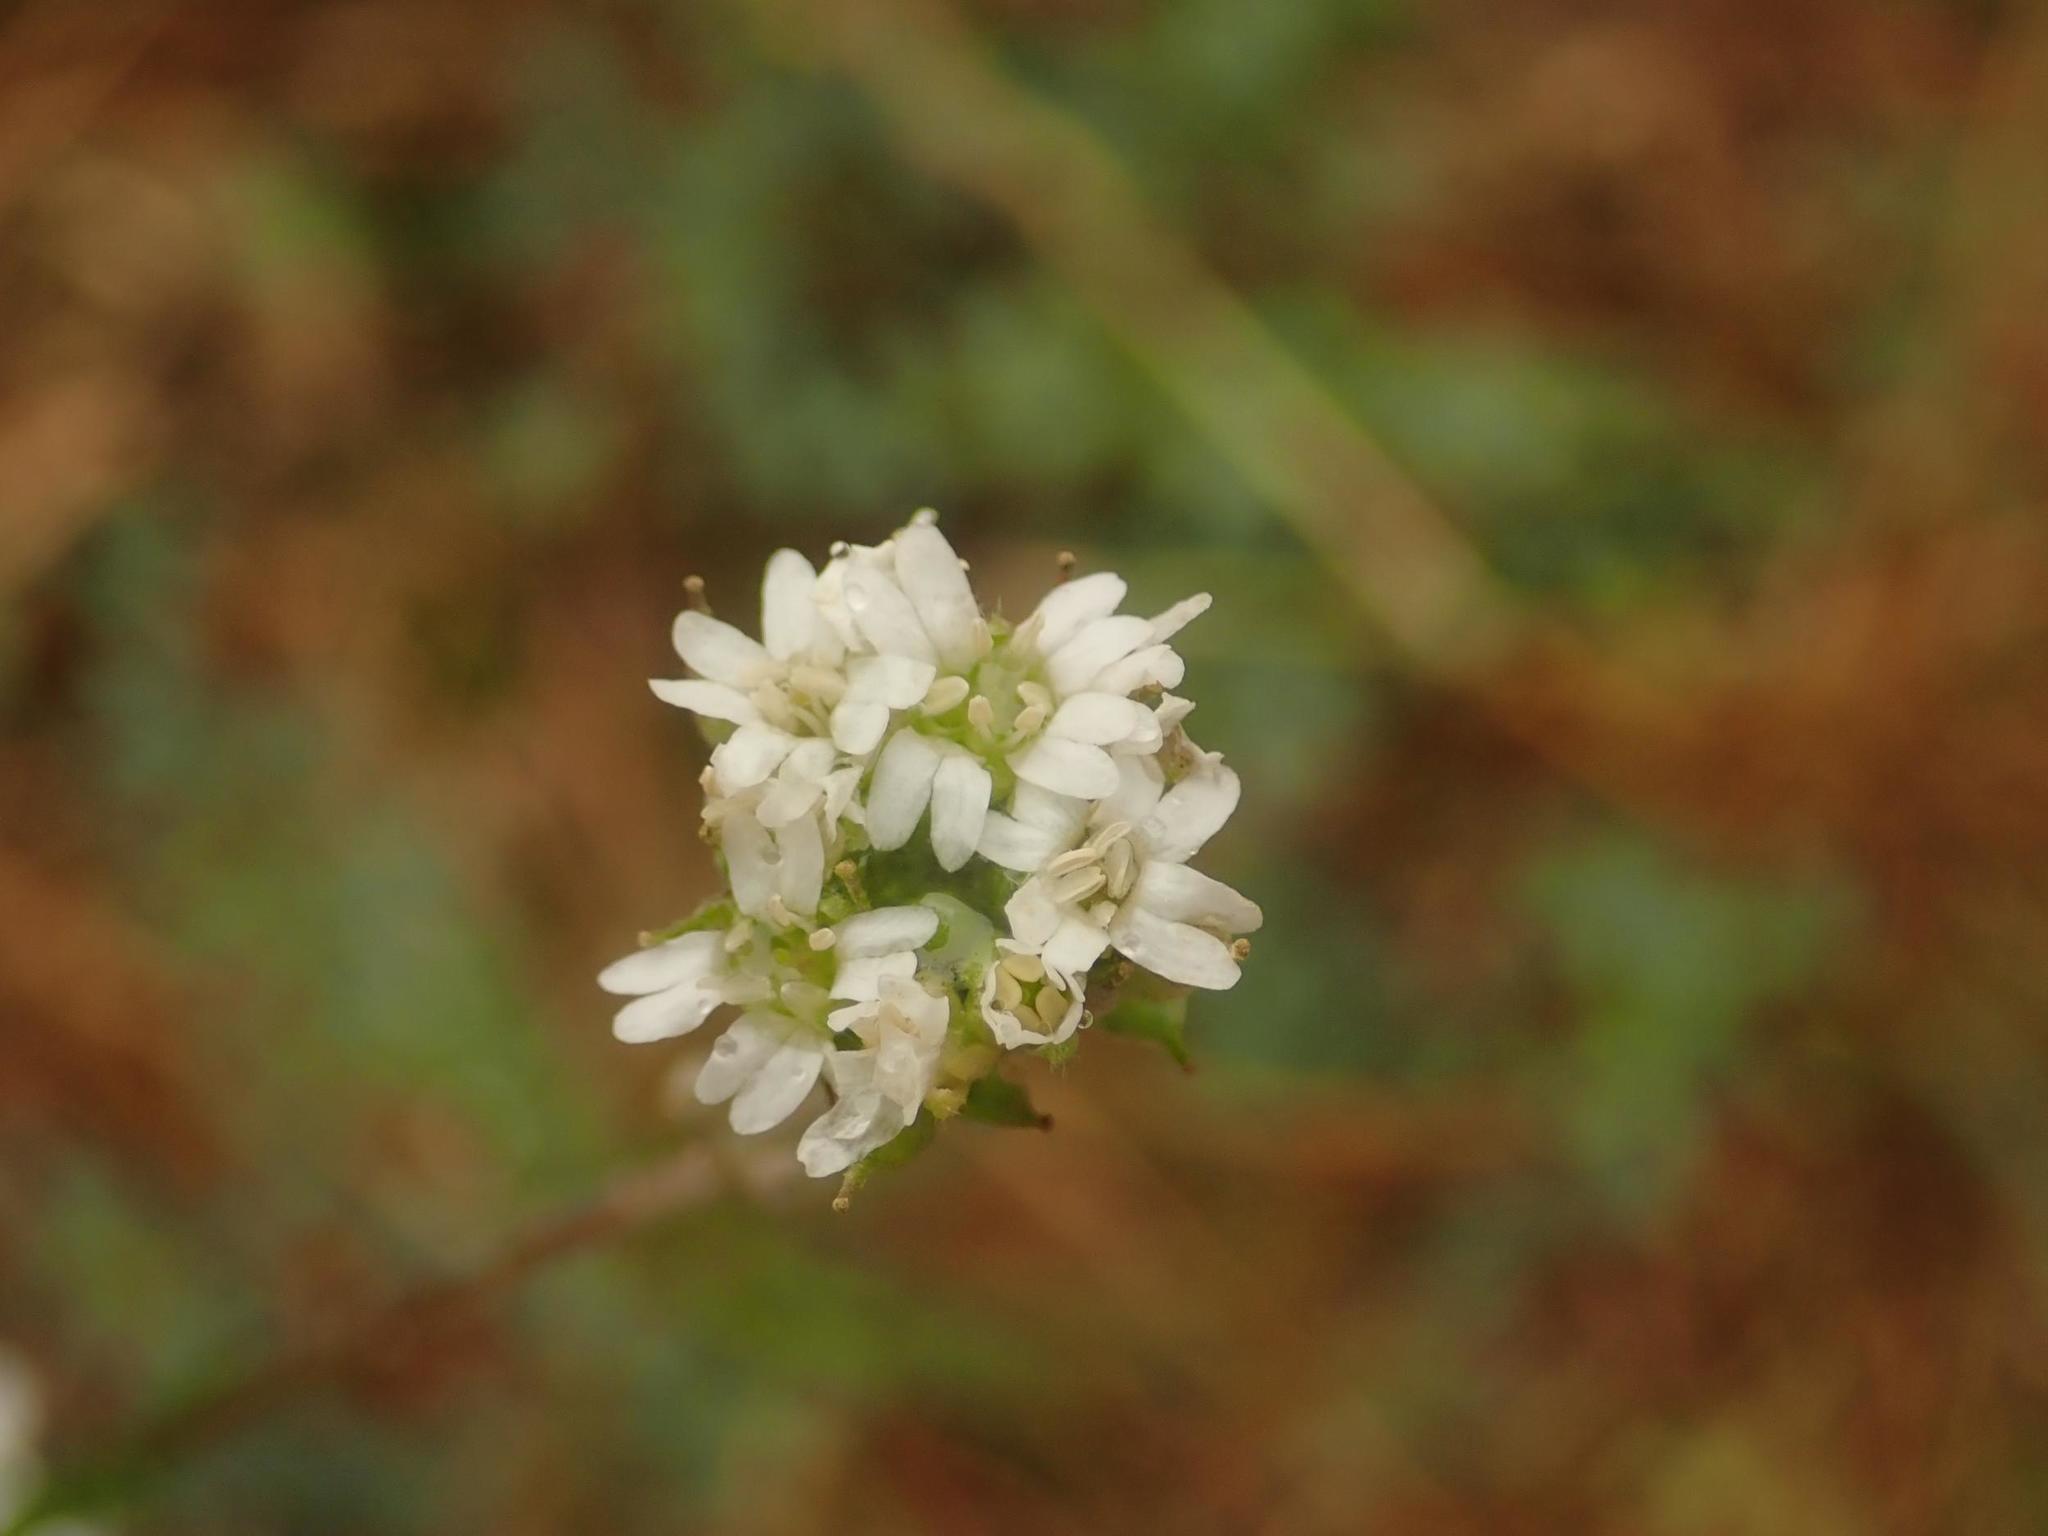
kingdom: Plantae
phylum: Tracheophyta
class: Magnoliopsida
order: Brassicales
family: Brassicaceae
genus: Berteroa
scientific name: Berteroa incana
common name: Hoary alison
